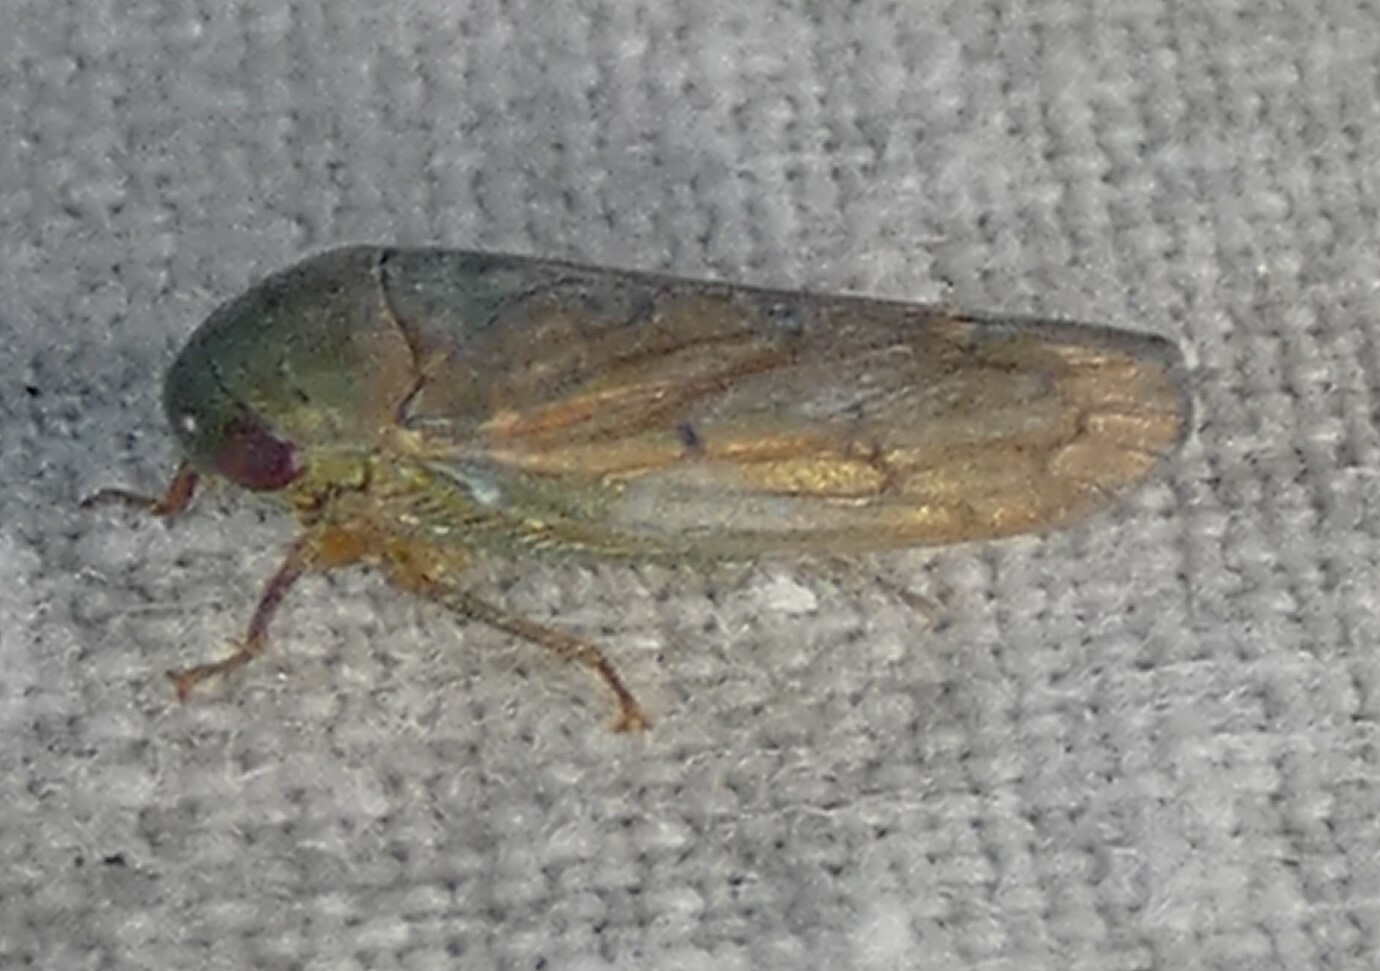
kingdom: Animalia
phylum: Arthropoda
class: Insecta
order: Hemiptera
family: Cicadellidae
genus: Polana
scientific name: Polana quadrinotata
